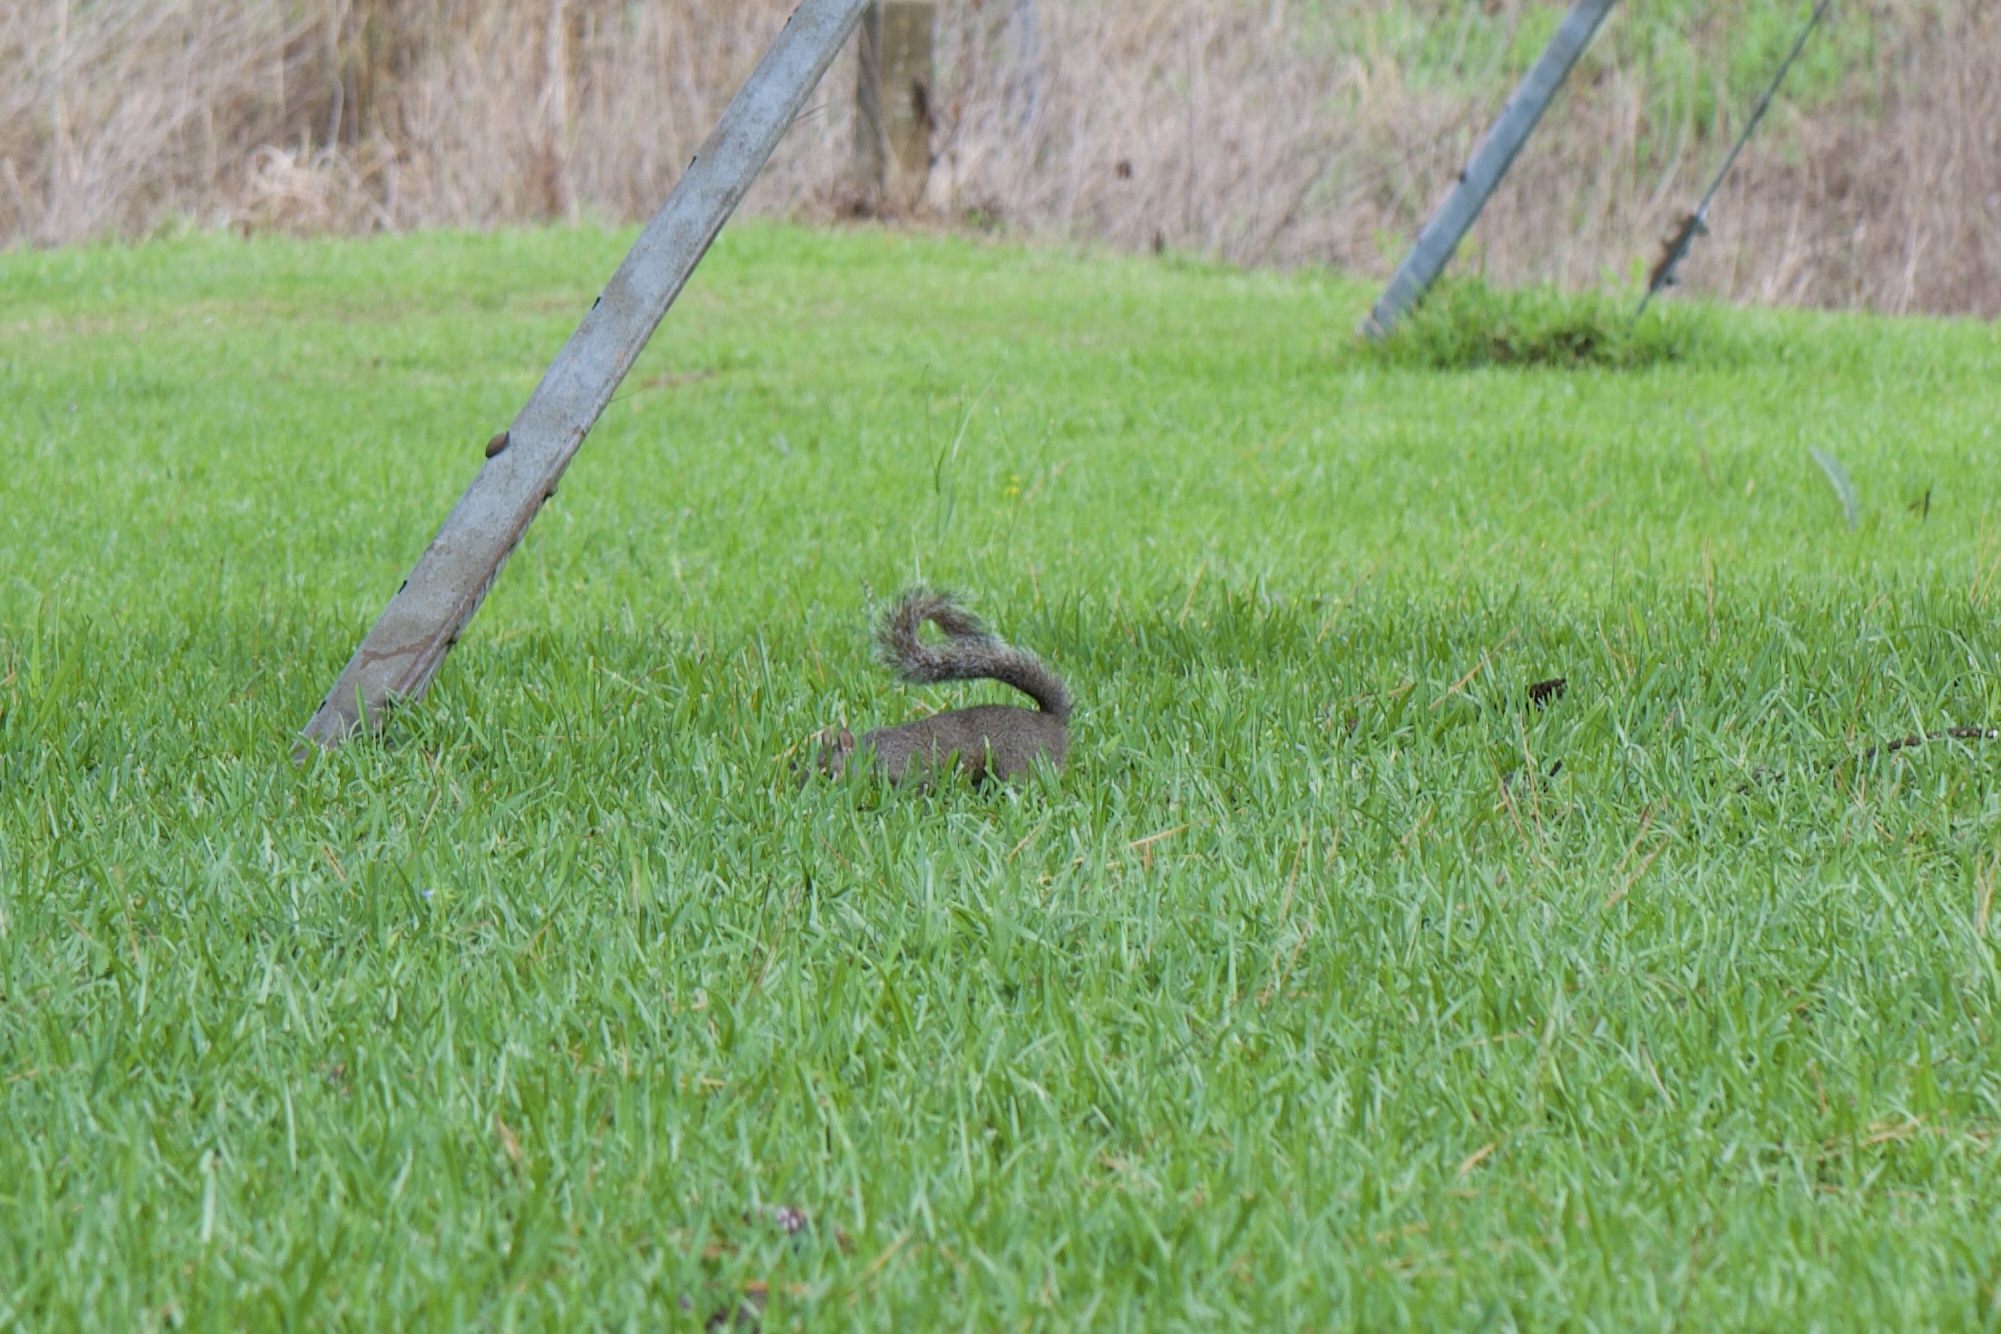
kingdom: Animalia
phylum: Chordata
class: Mammalia
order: Rodentia
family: Sciuridae
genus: Sciurus
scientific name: Sciurus carolinensis
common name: Eastern gray squirrel
